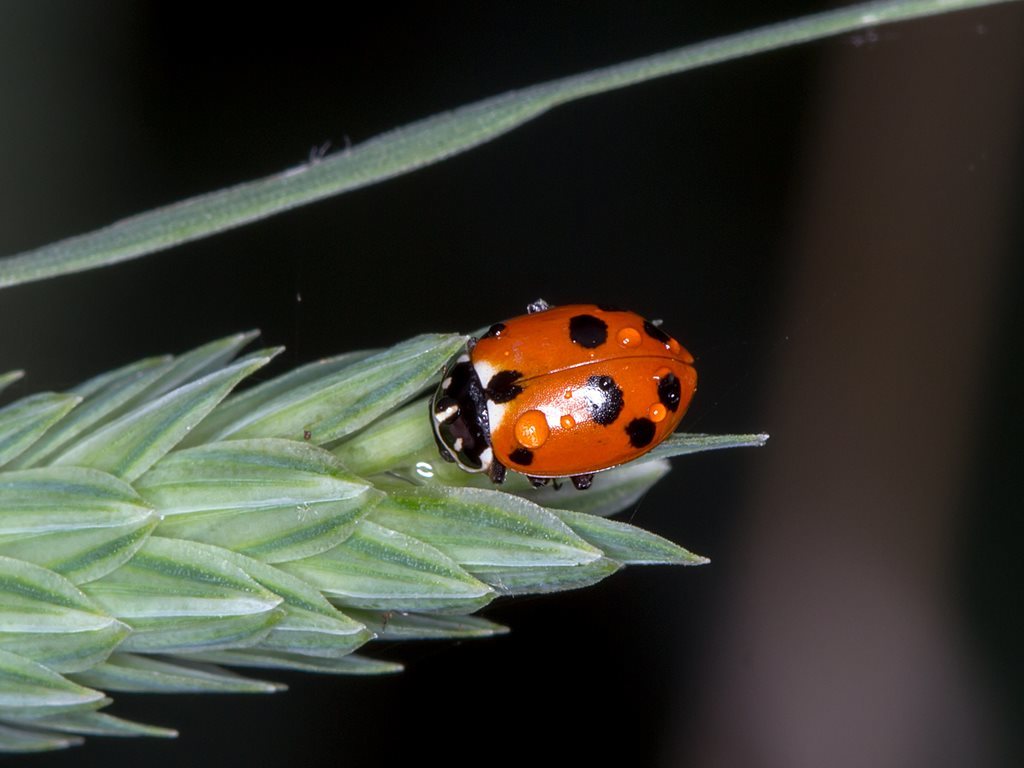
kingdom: Animalia
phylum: Arthropoda
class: Insecta
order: Coleoptera
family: Coccinellidae
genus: Hippodamia
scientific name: Hippodamia variegata
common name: Ladybird beetle
